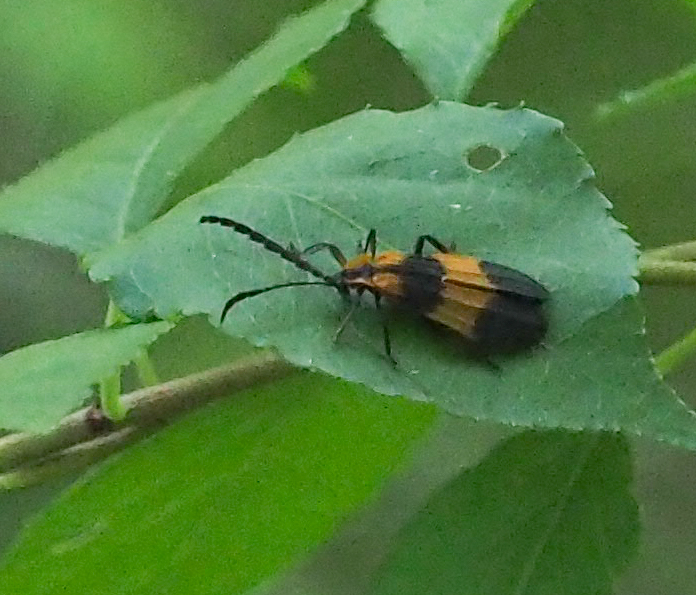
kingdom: Animalia
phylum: Arthropoda
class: Insecta
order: Coleoptera
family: Lycidae
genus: Calopteron
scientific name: Calopteron reticulatum
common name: Banded net-winged beetle
